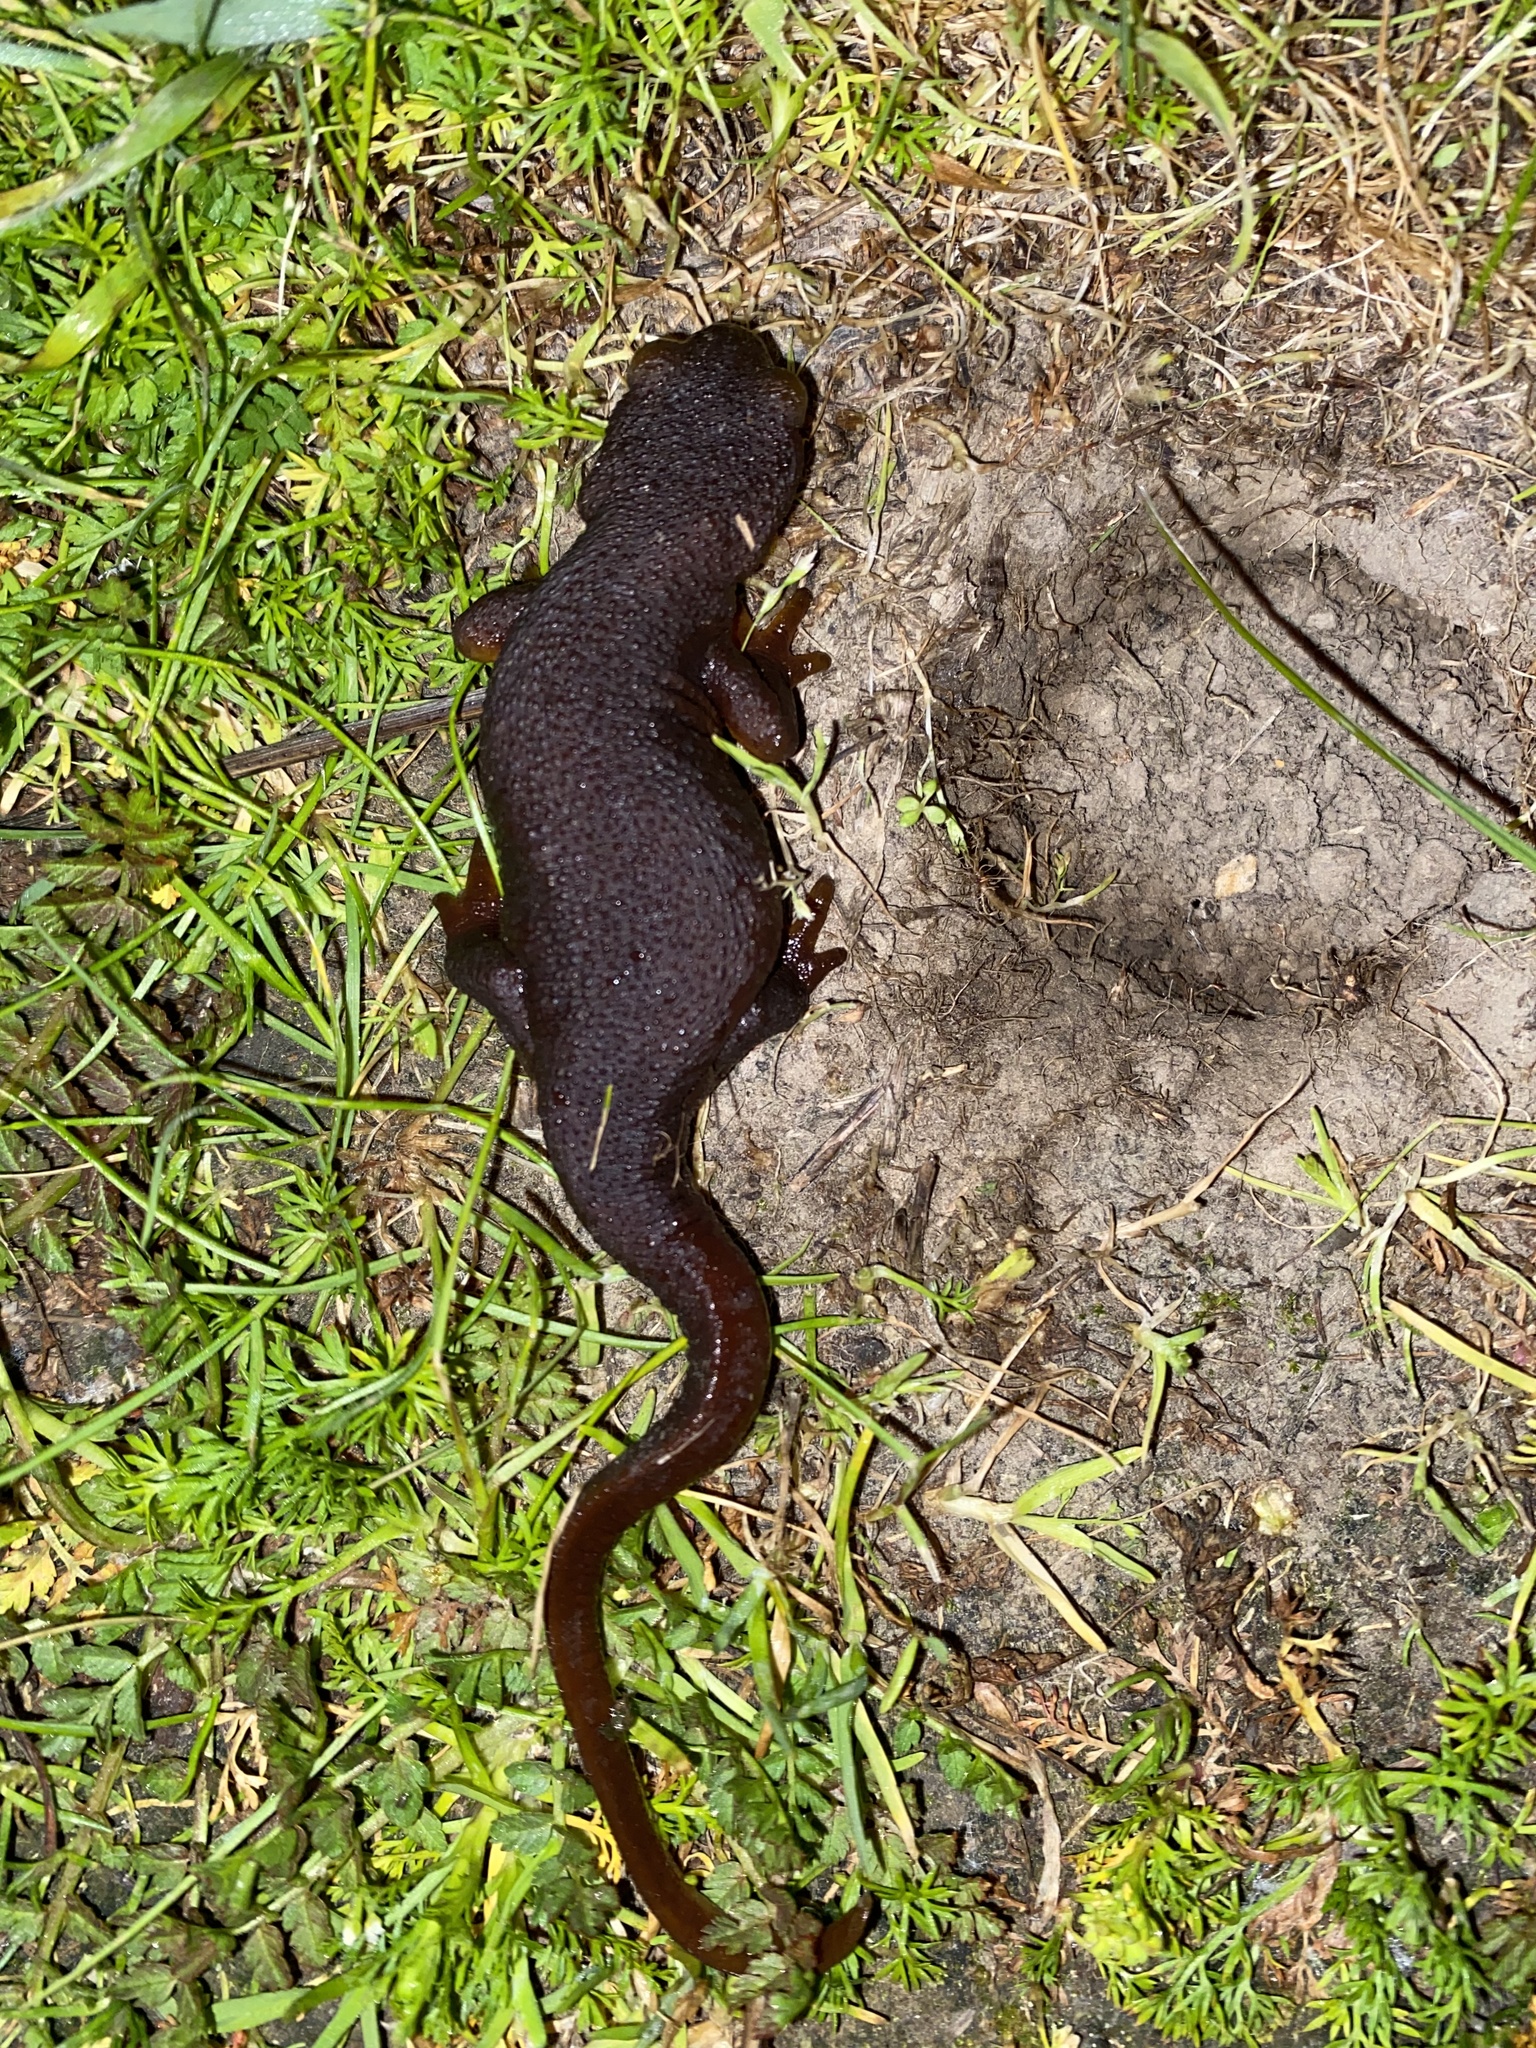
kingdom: Animalia
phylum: Chordata
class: Amphibia
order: Caudata
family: Salamandridae
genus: Taricha
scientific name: Taricha torosa
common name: California newt
